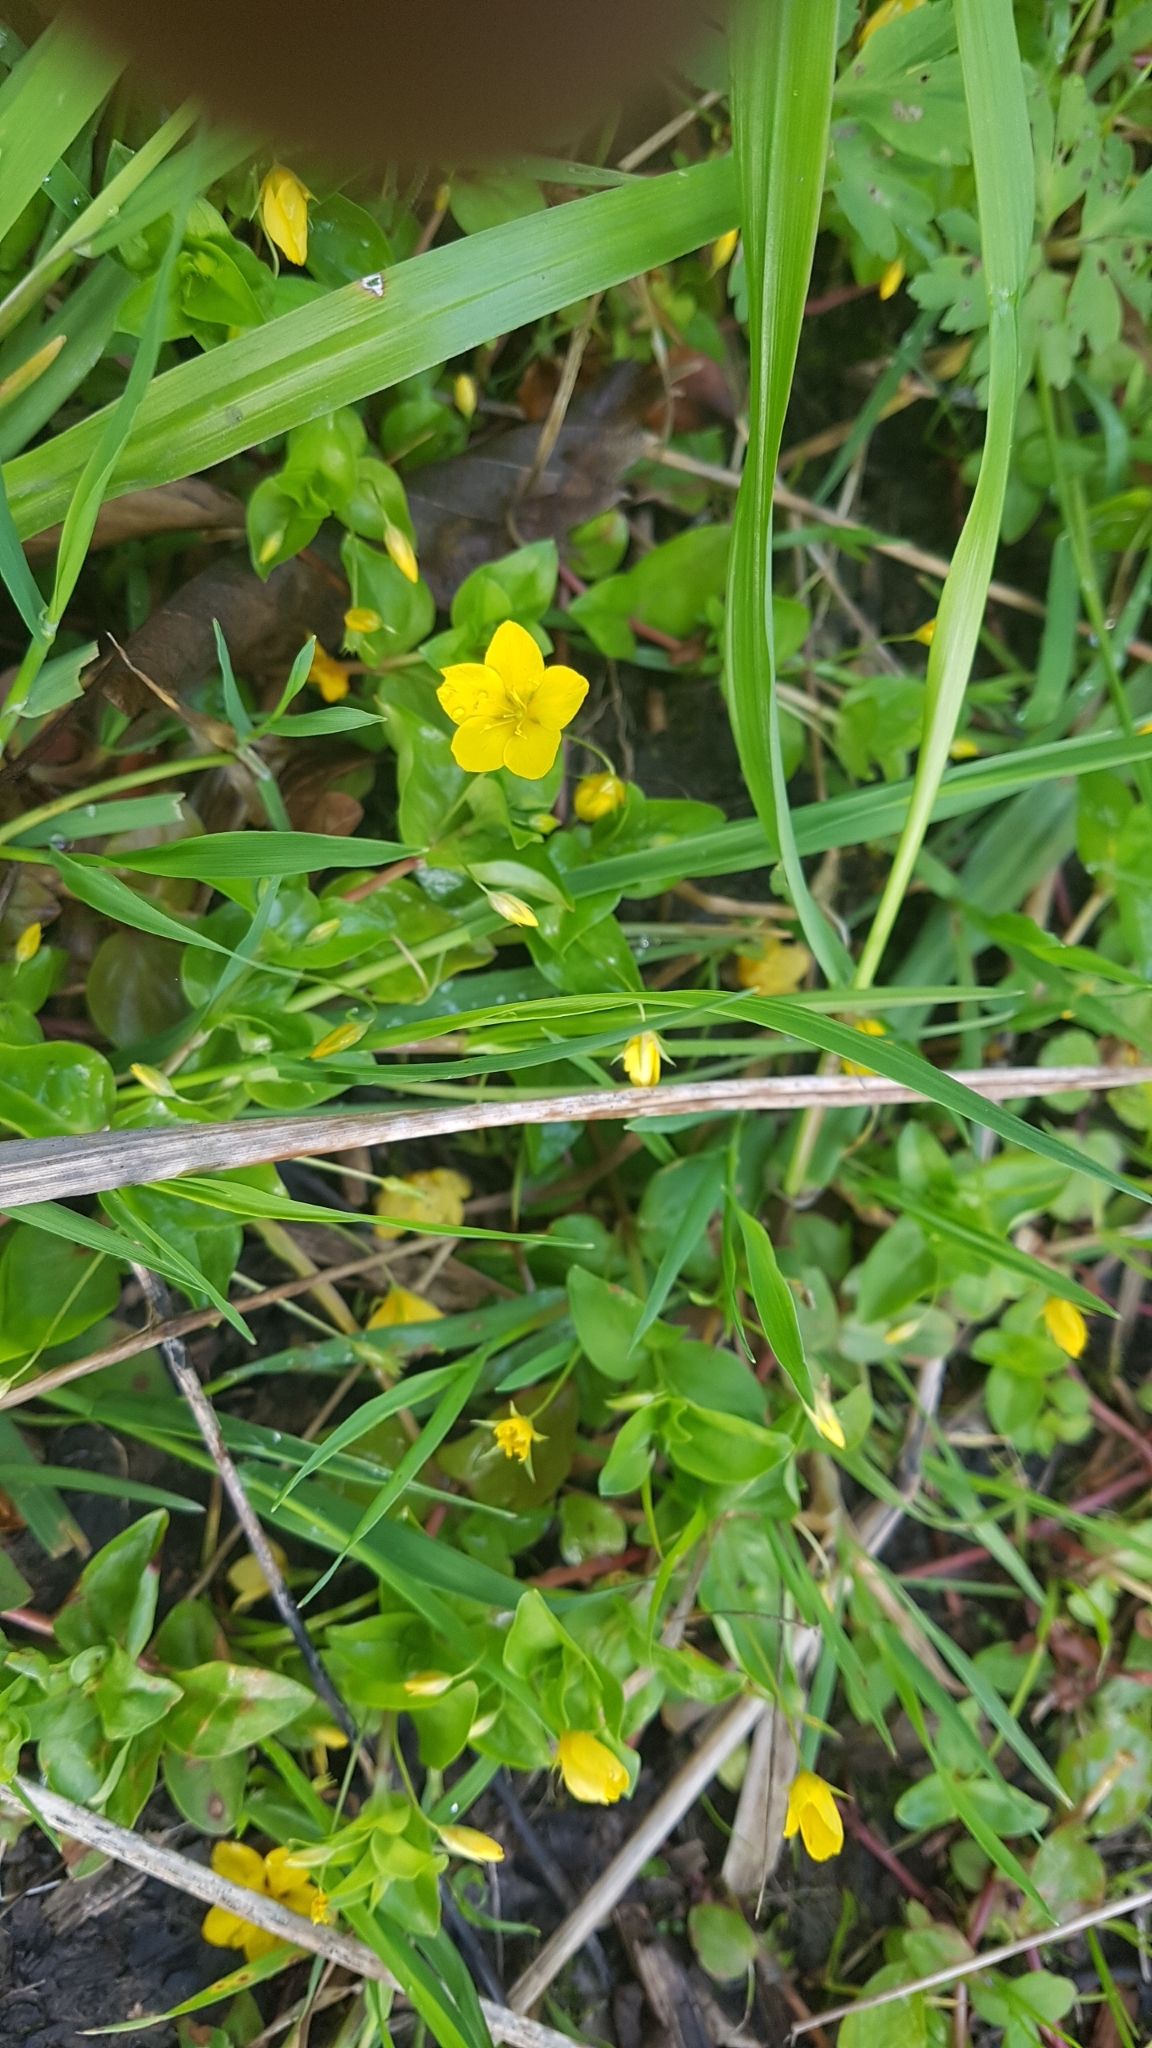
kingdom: Plantae
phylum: Tracheophyta
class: Magnoliopsida
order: Ericales
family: Primulaceae
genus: Lysimachia
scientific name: Lysimachia nemorum
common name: Yellow pimpernel
